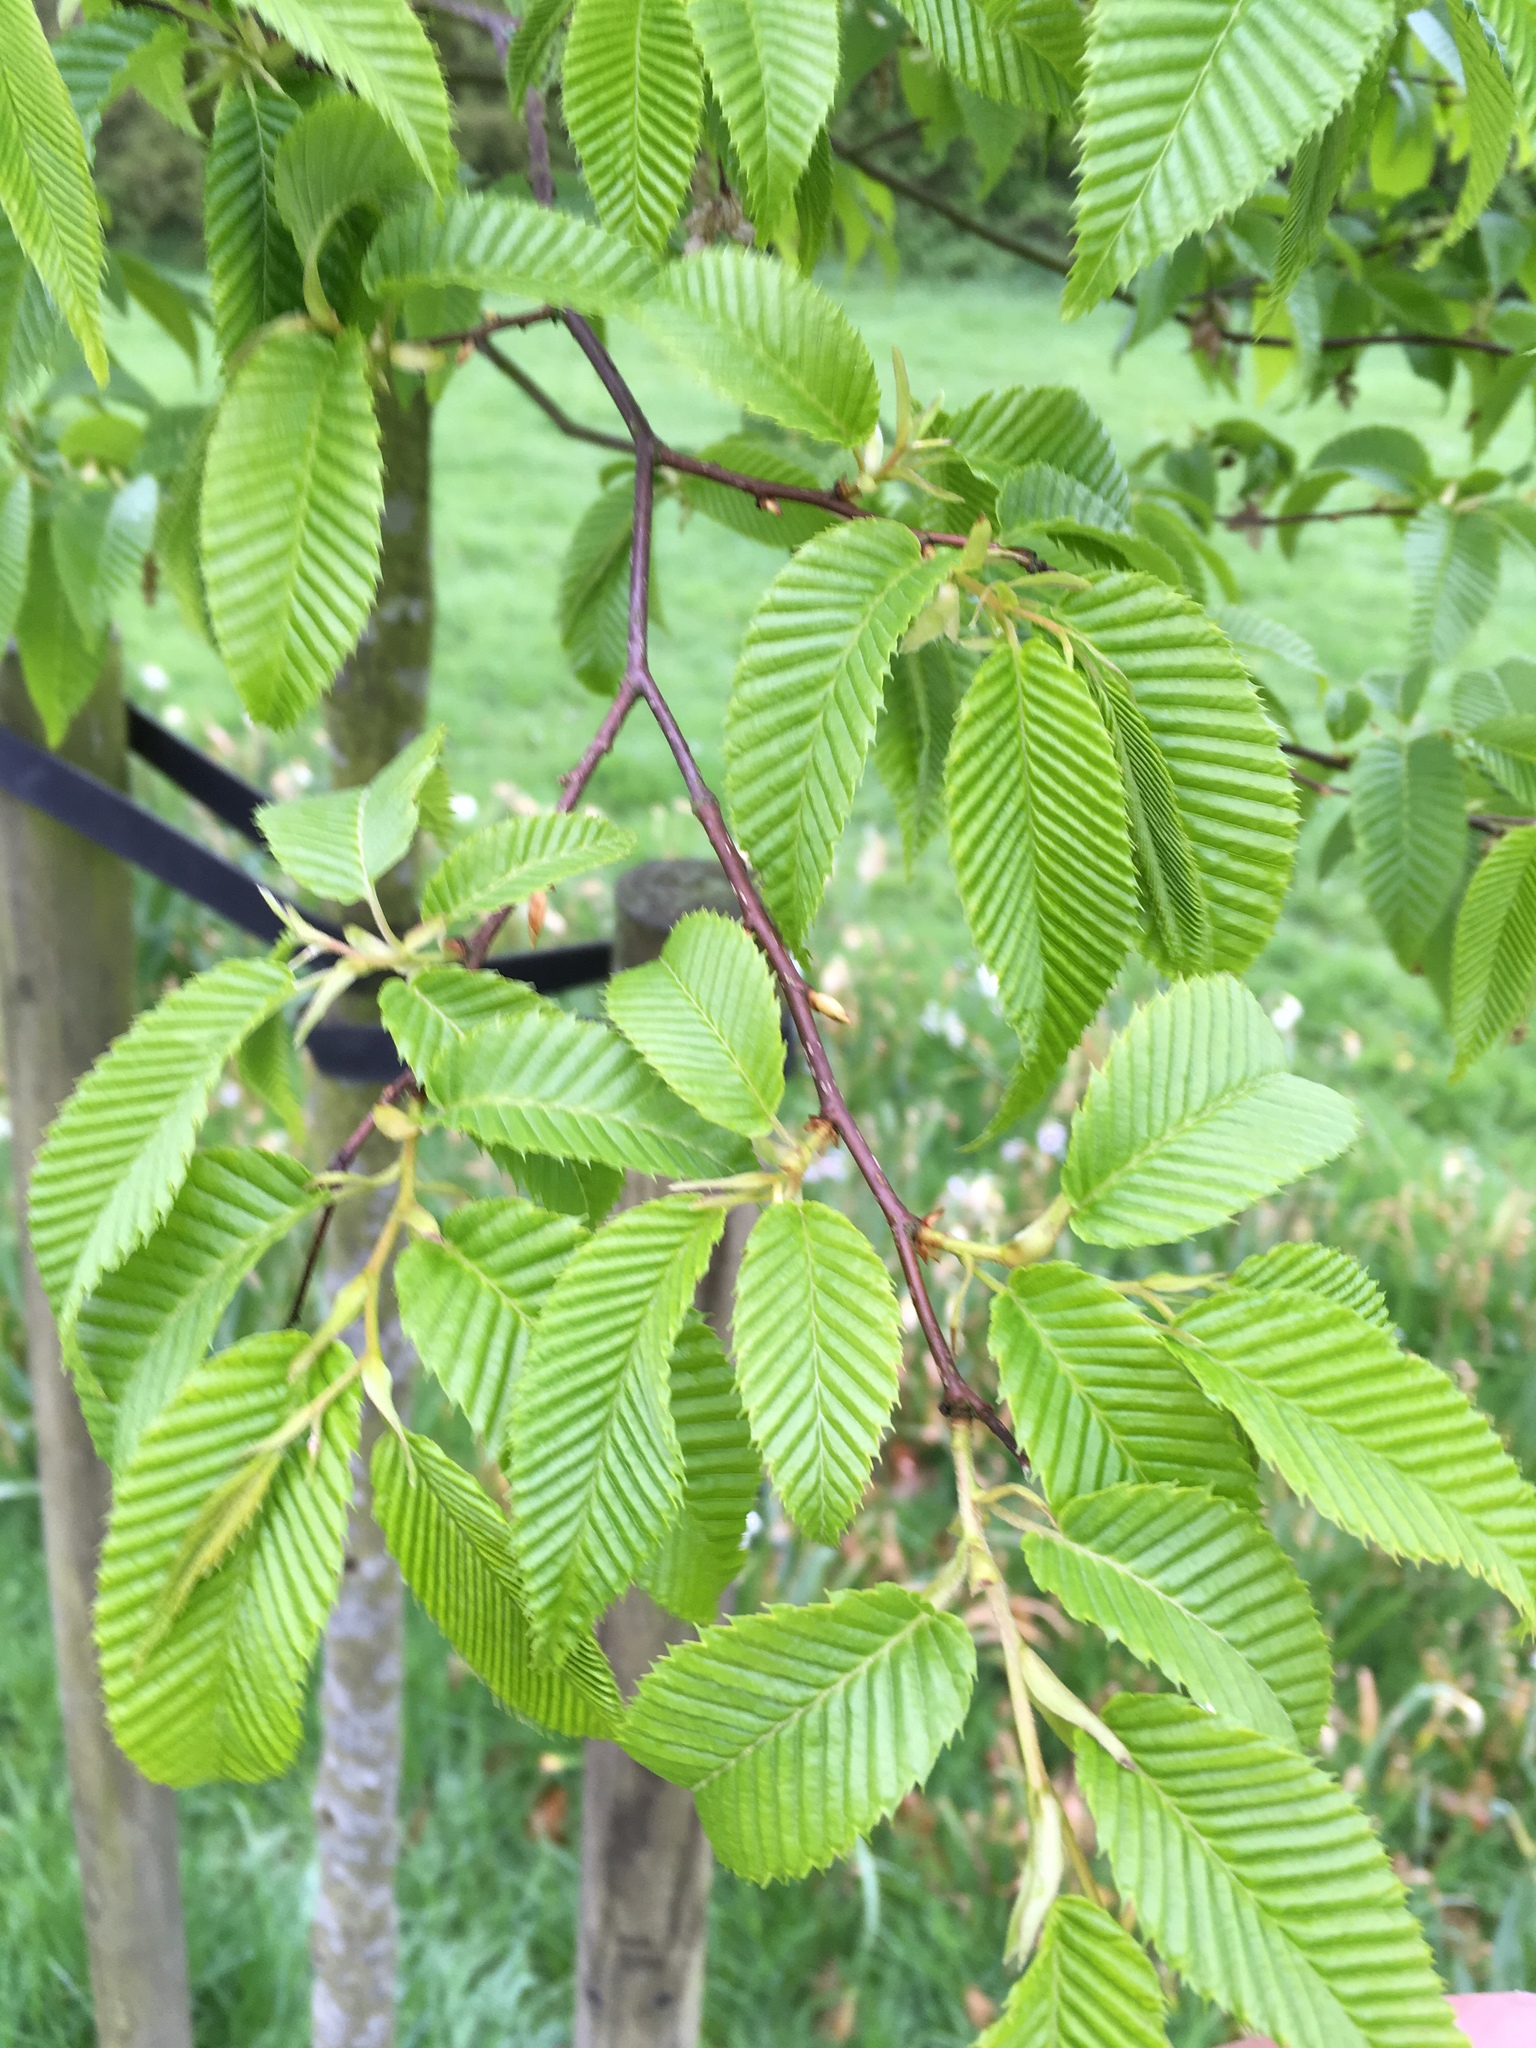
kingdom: Plantae
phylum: Tracheophyta
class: Magnoliopsida
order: Fagales
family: Betulaceae
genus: Carpinus
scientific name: Carpinus betulus
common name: Hornbeam
